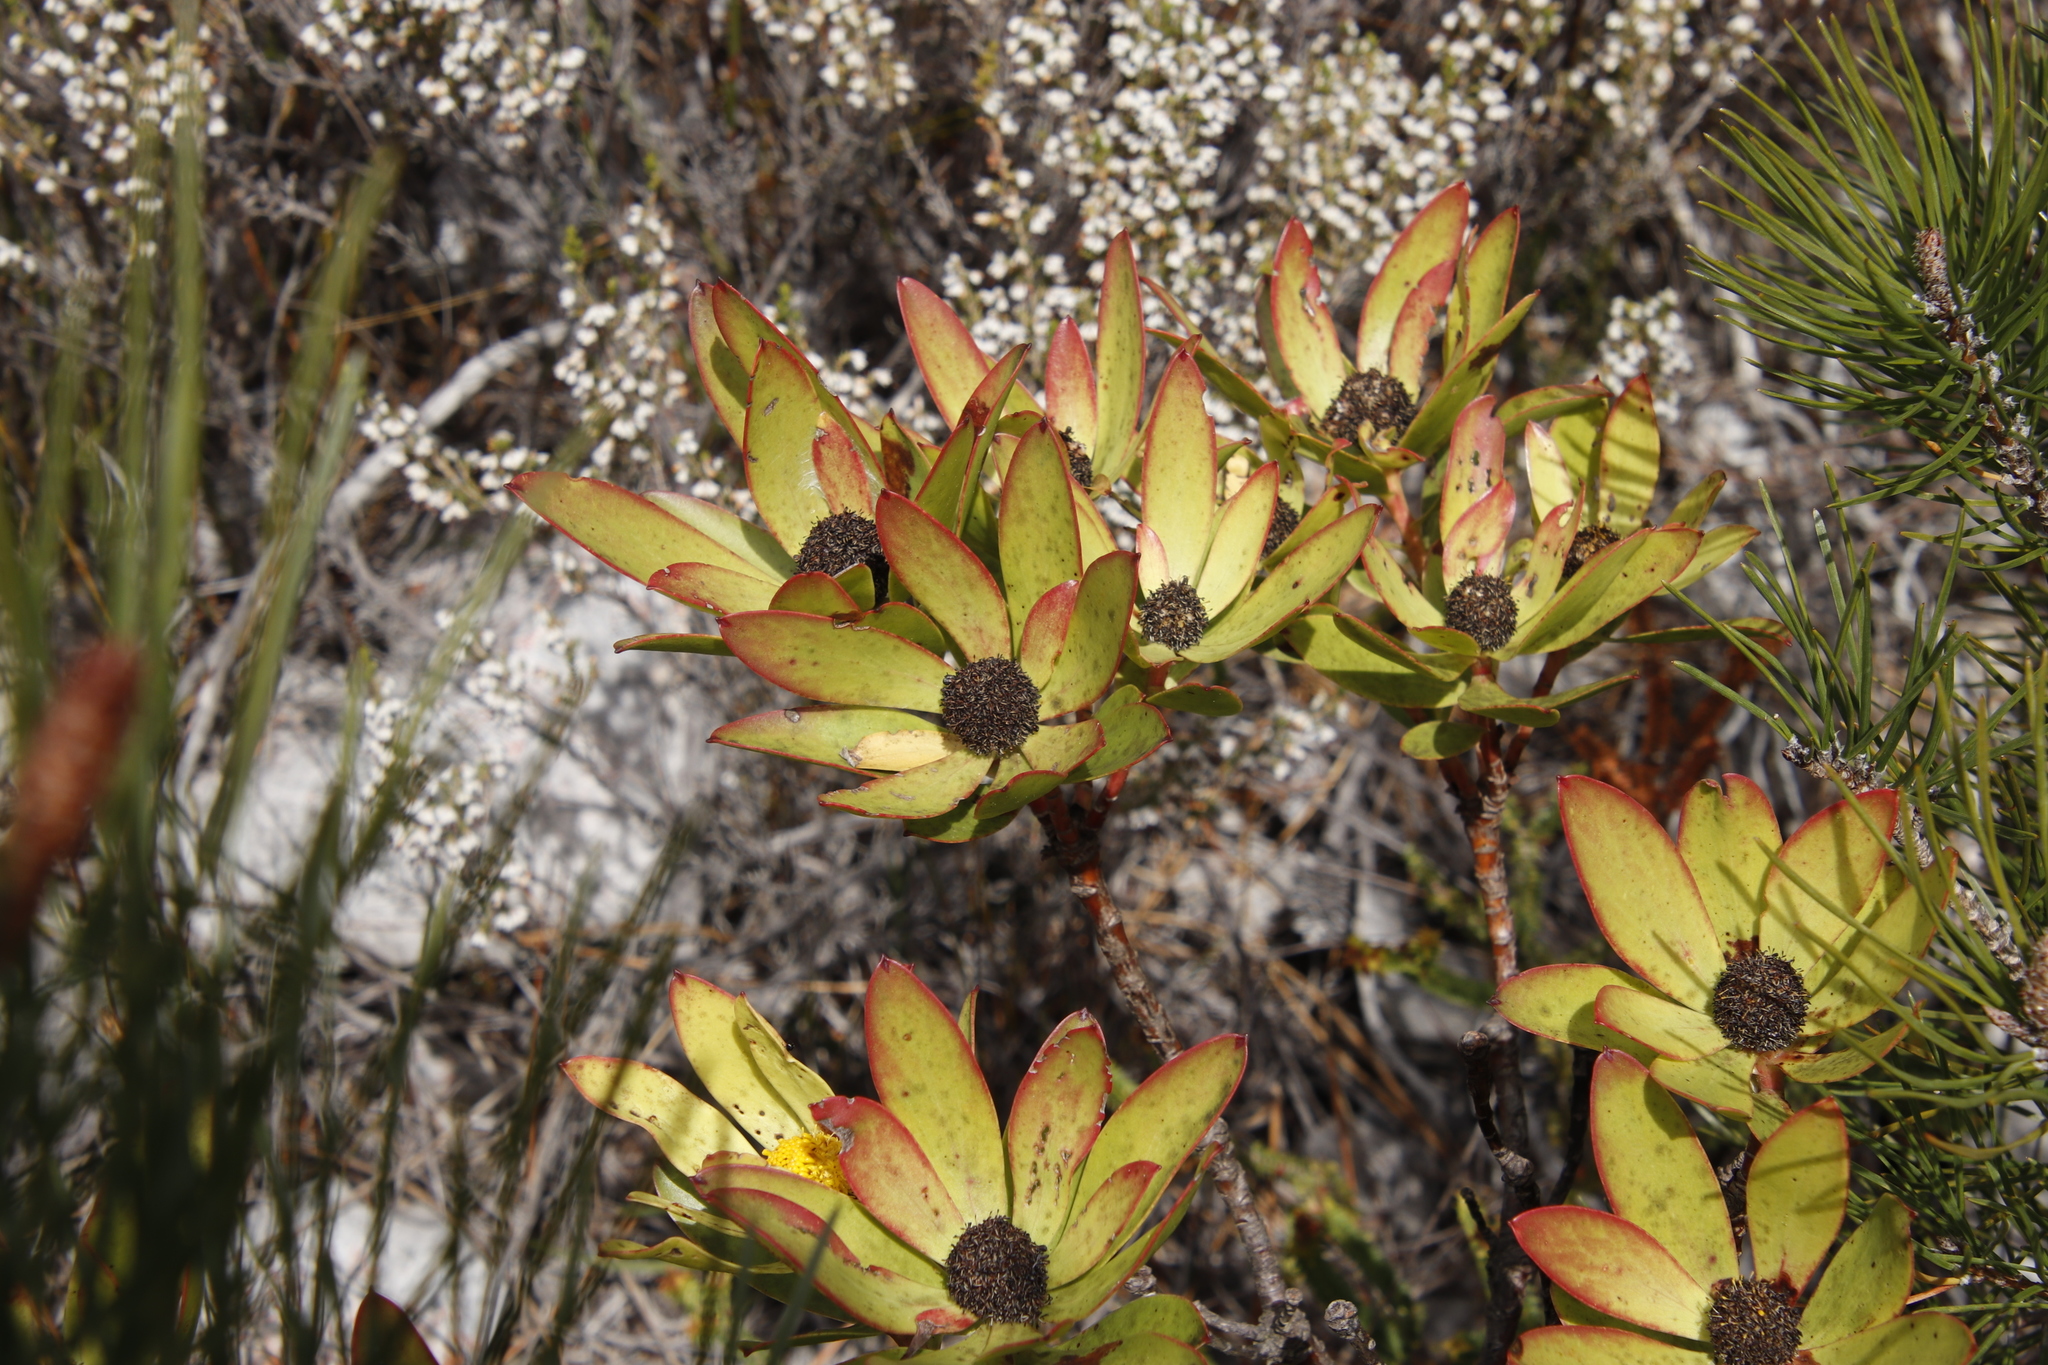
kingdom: Plantae
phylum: Tracheophyta
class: Magnoliopsida
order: Proteales
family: Proteaceae
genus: Leucadendron
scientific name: Leucadendron gandogeri
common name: Broad-leaf conebush
